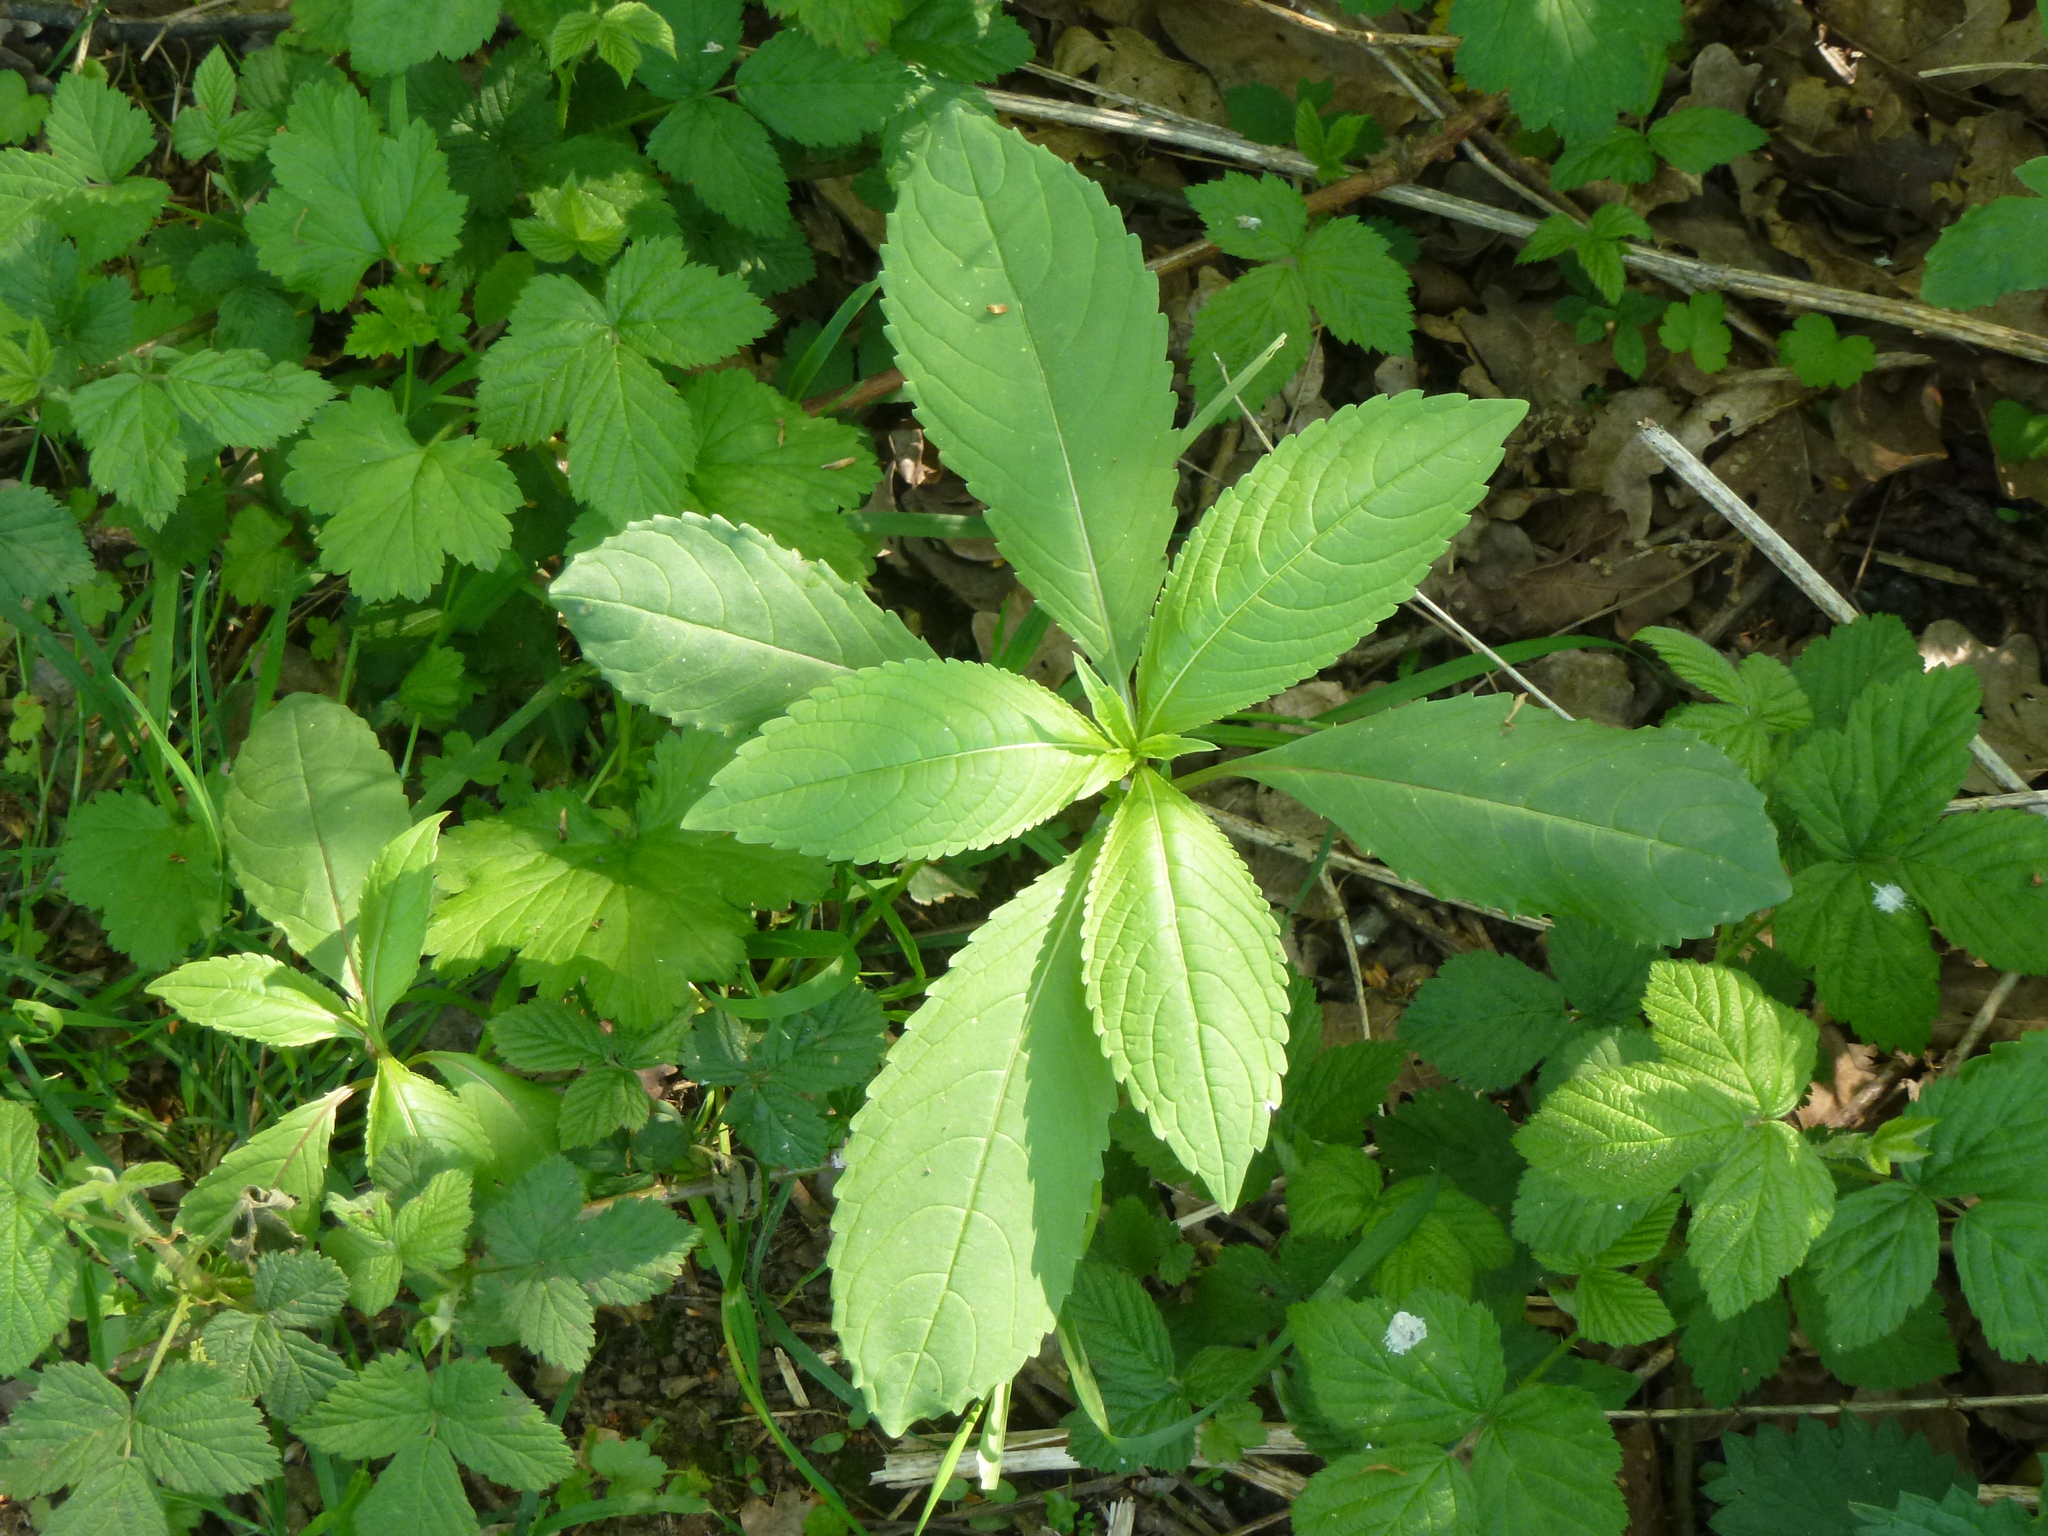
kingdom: Plantae
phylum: Tracheophyta
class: Magnoliopsida
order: Ericales
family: Balsaminaceae
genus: Impatiens
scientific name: Impatiens glandulifera
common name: Himalayan balsam
